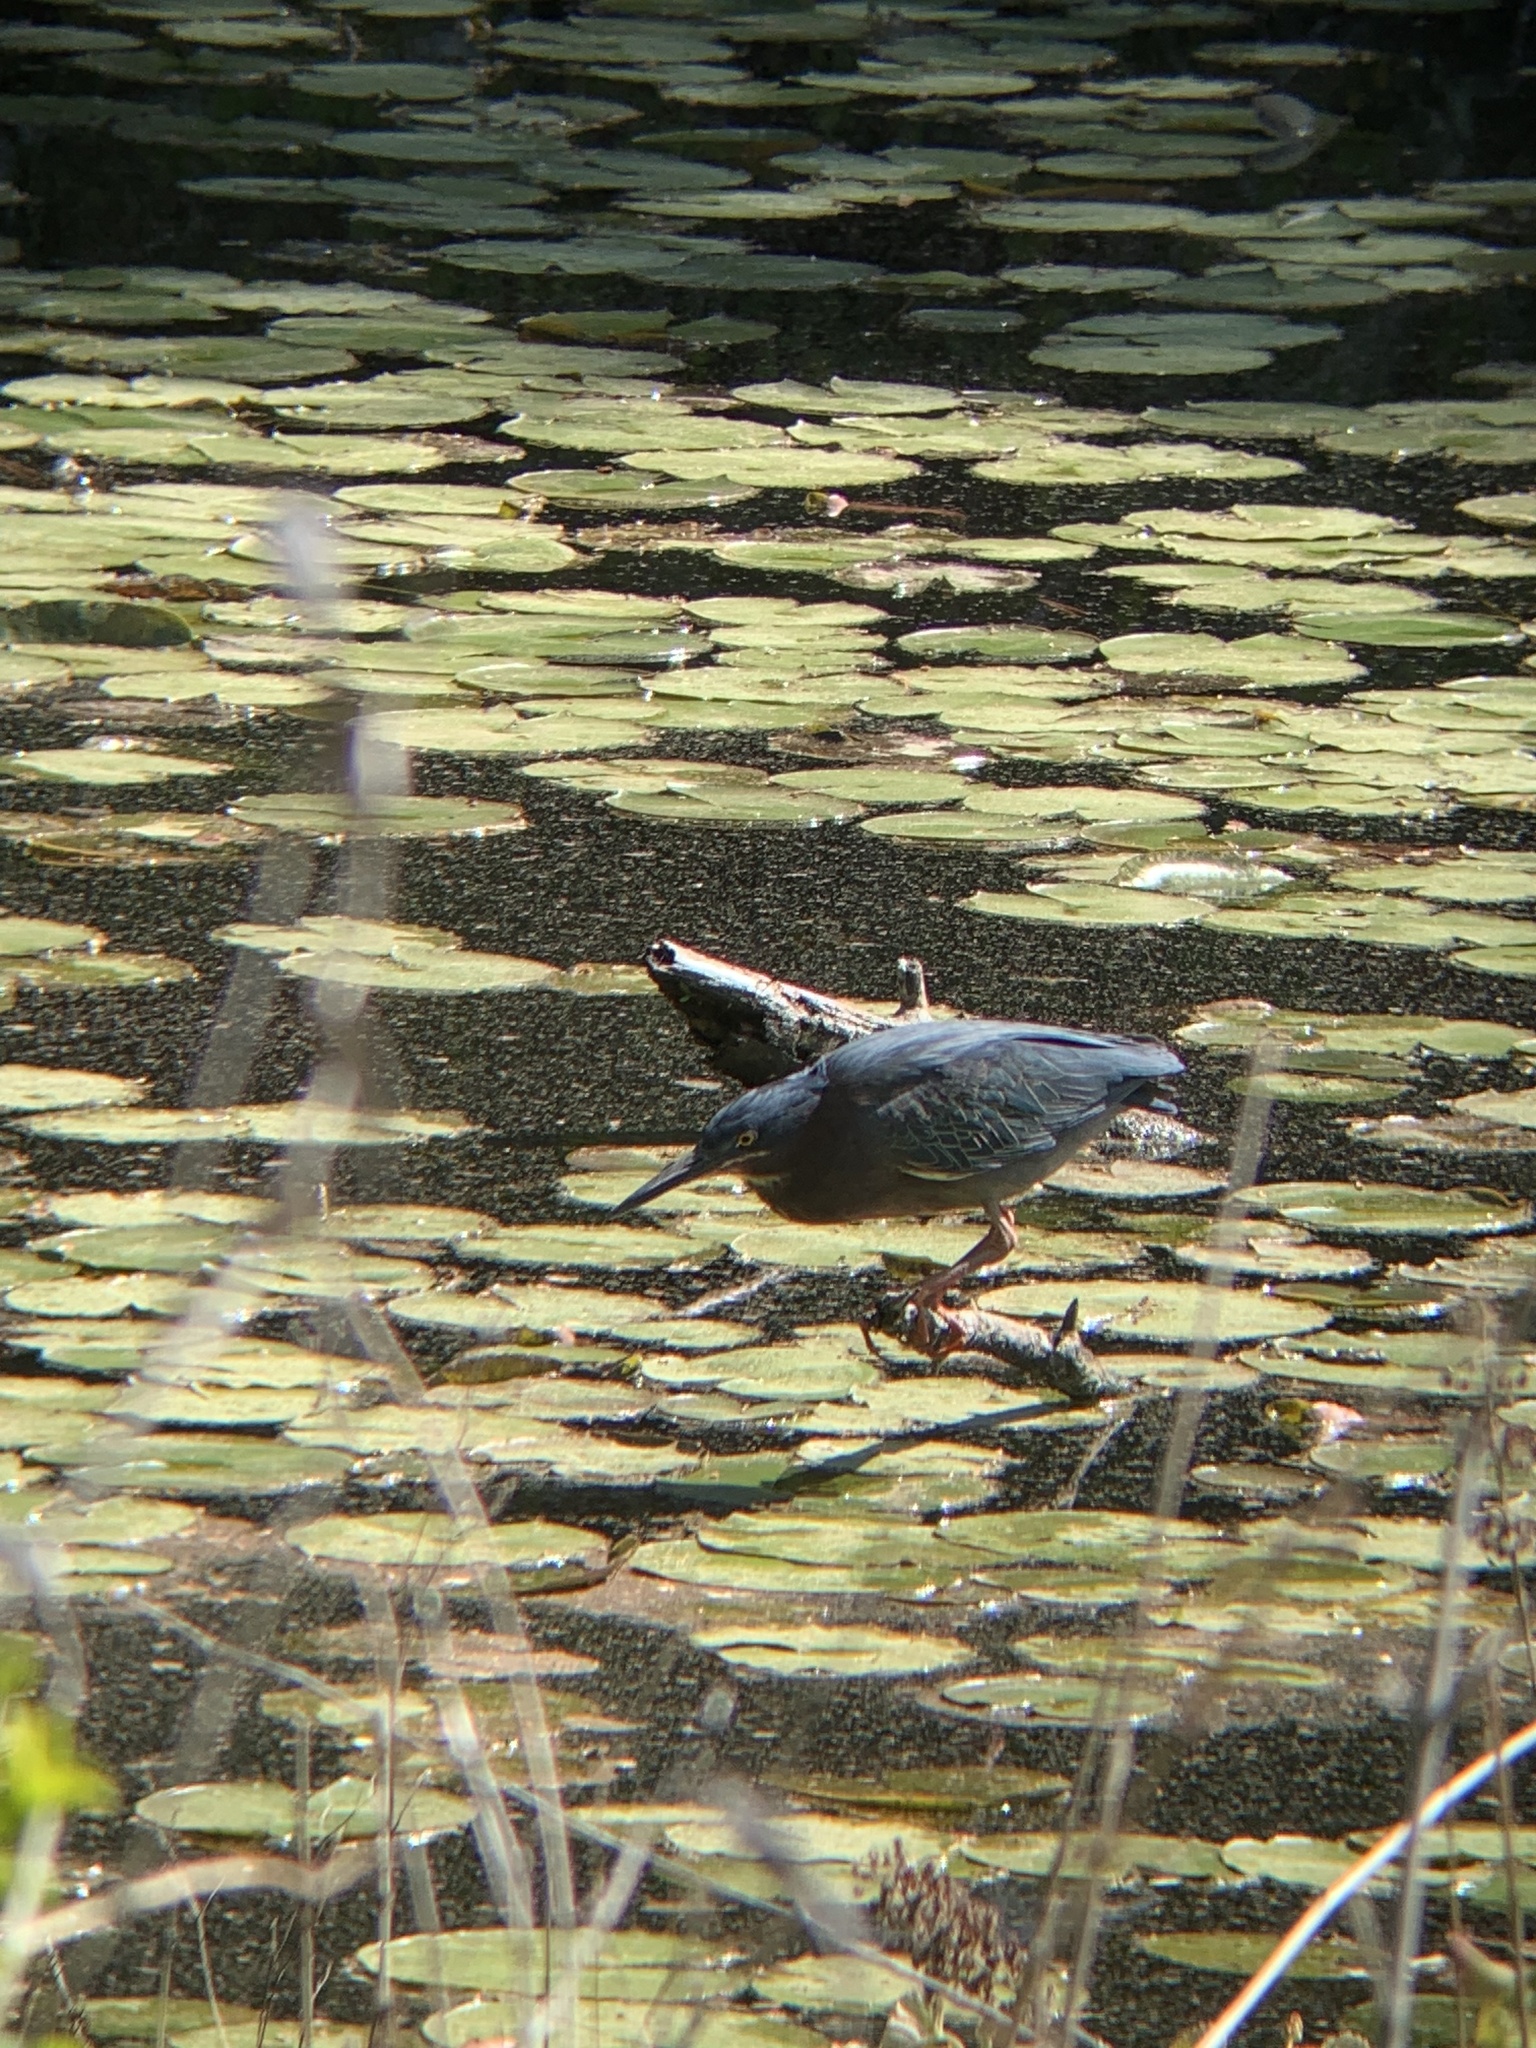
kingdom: Animalia
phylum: Chordata
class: Aves
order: Pelecaniformes
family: Ardeidae
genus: Butorides
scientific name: Butorides virescens
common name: Green heron
